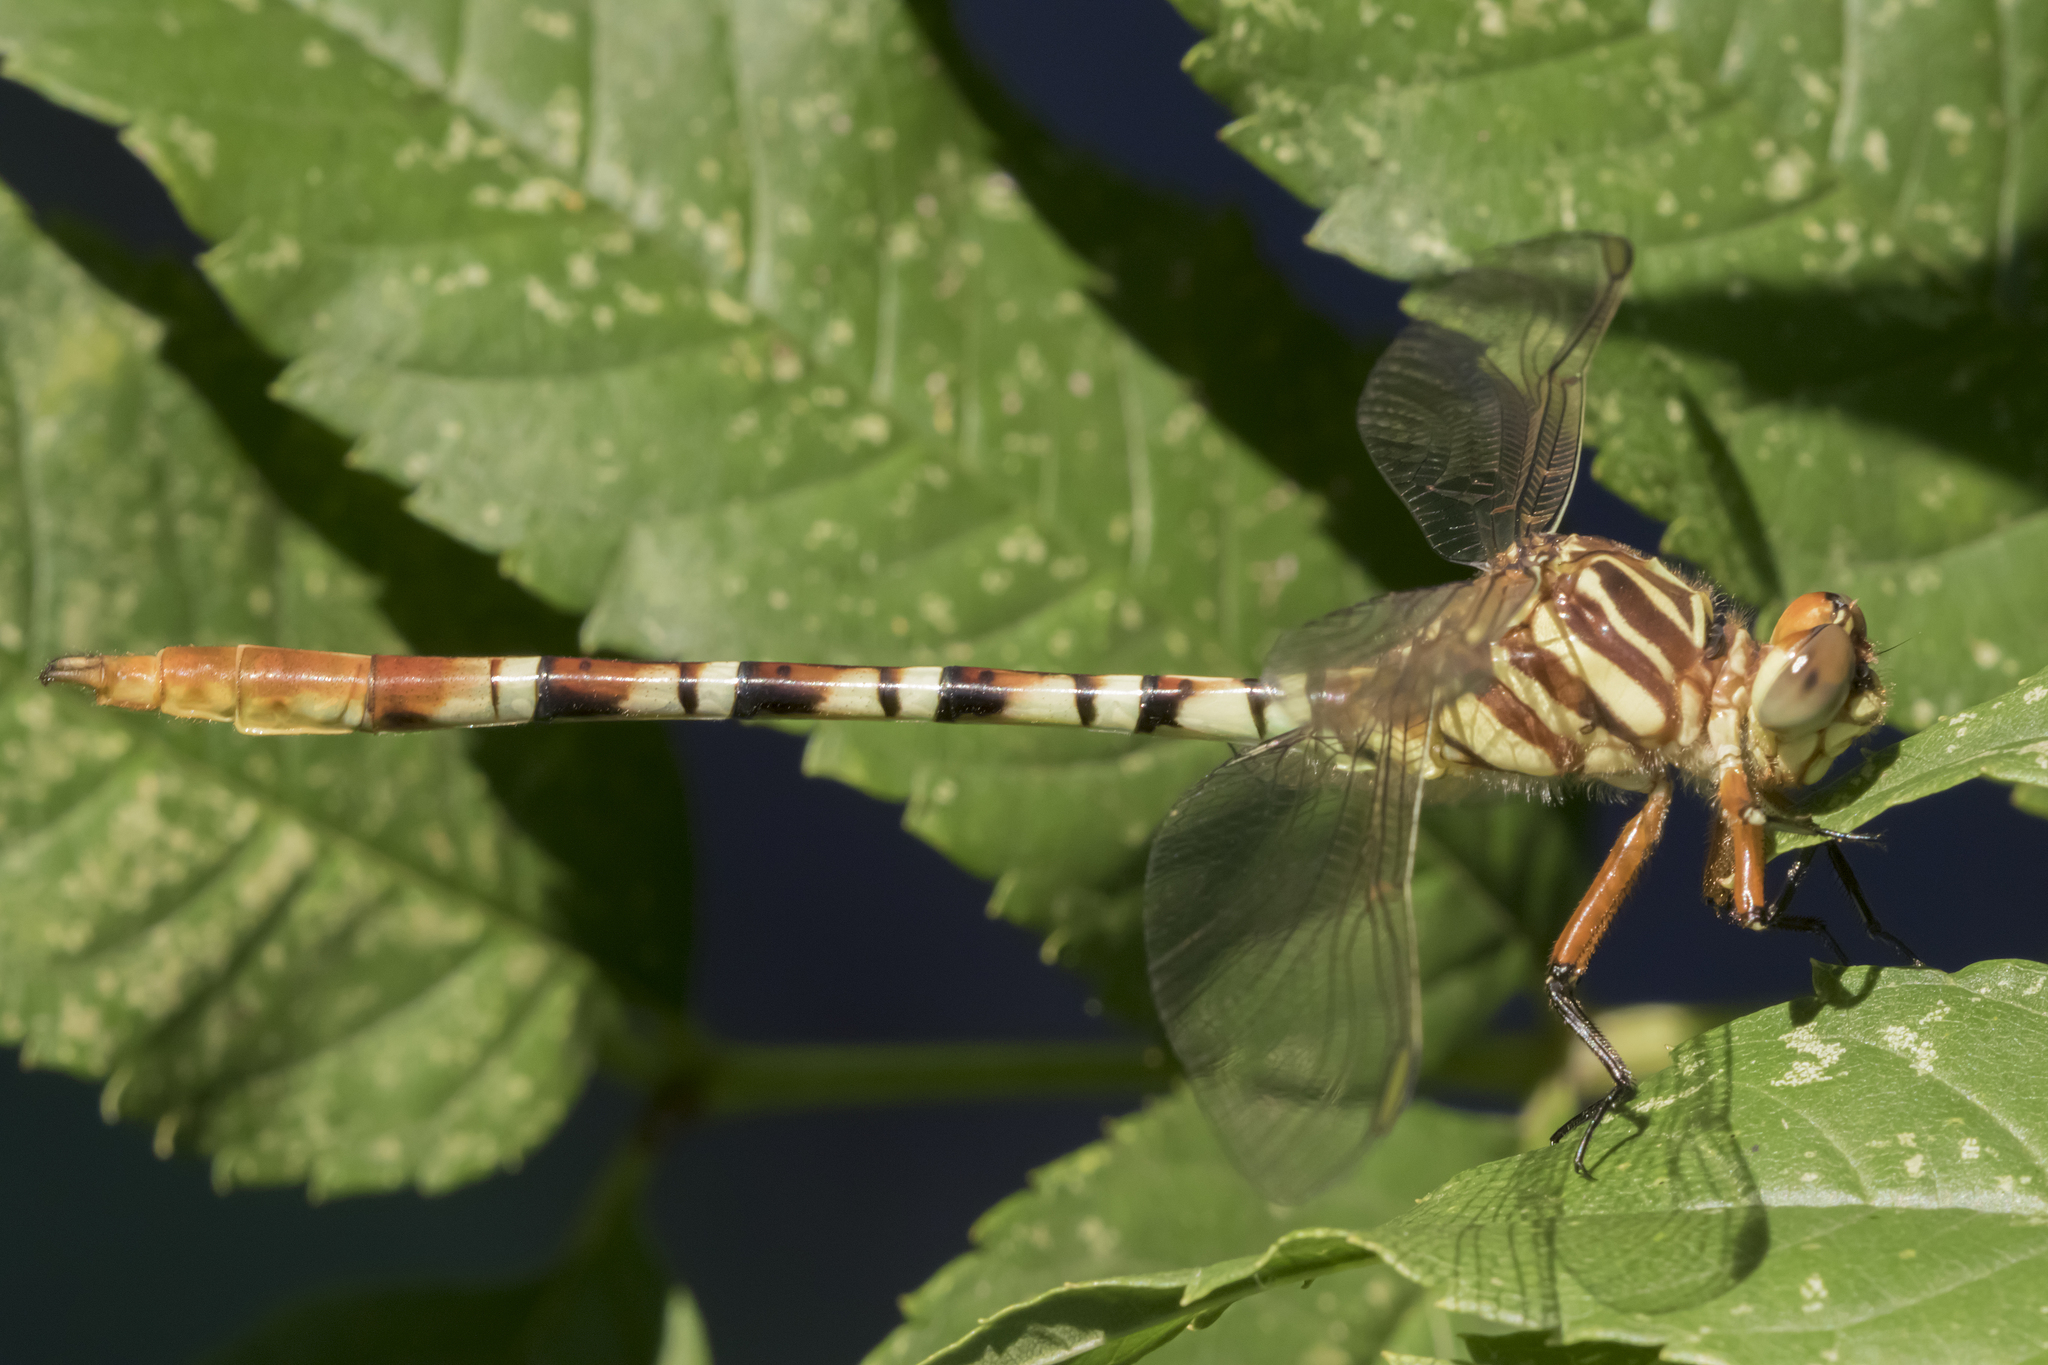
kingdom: Animalia
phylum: Arthropoda
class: Insecta
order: Odonata
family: Gomphidae
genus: Aphylla
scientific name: Aphylla theodorina
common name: Ringed forceptail
